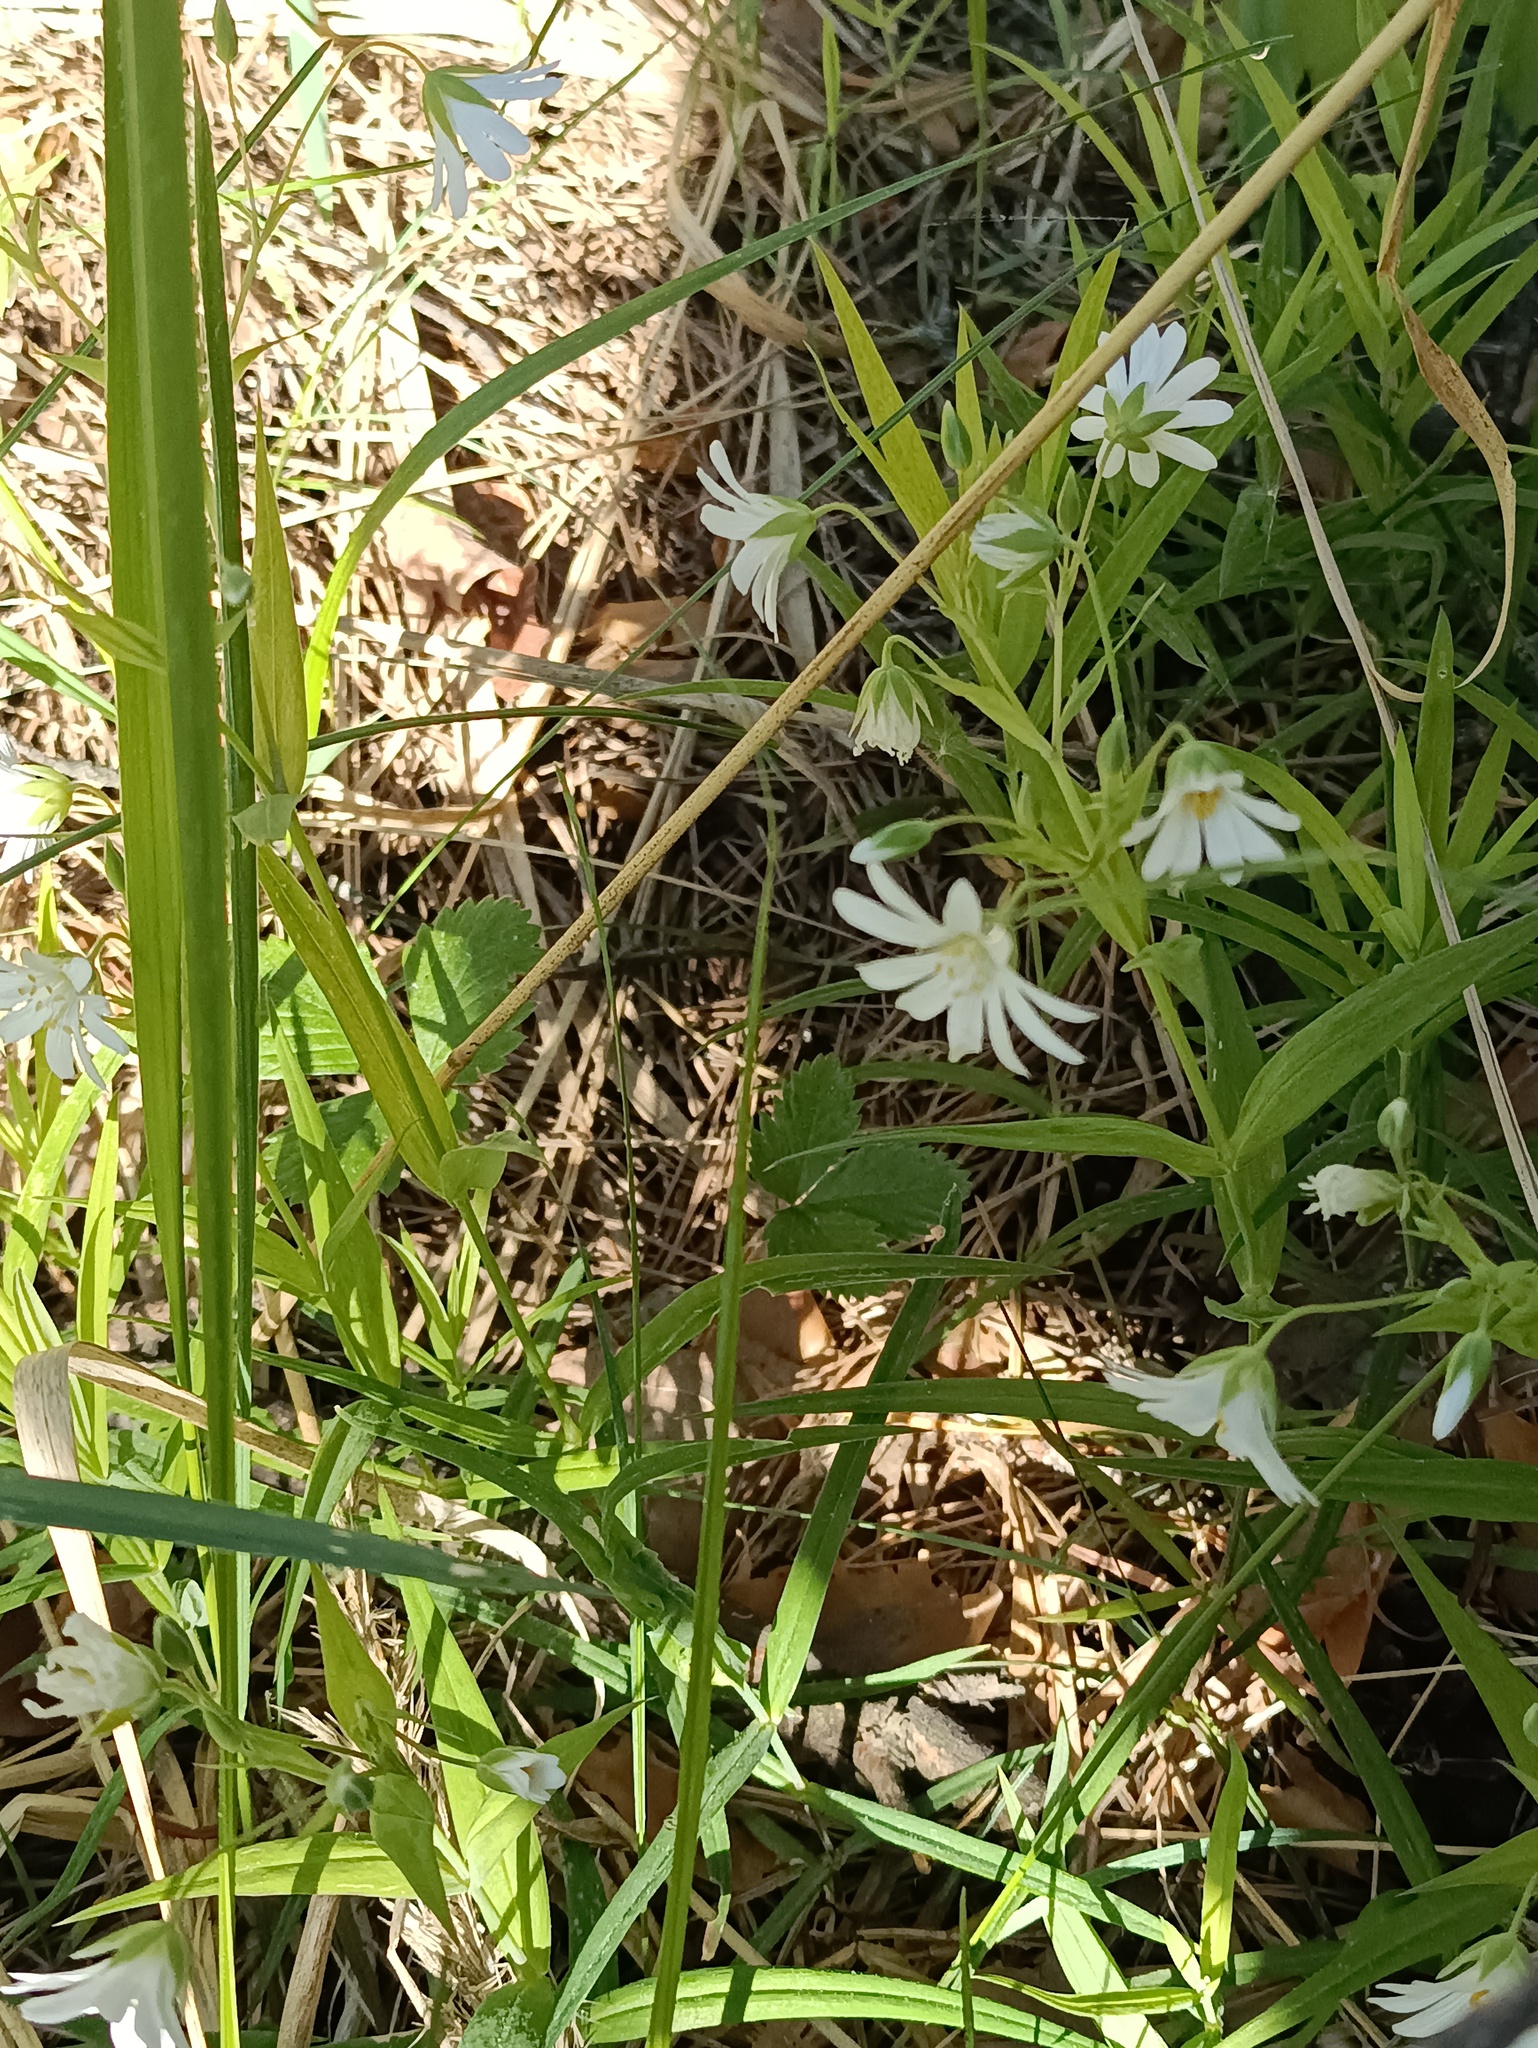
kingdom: Plantae
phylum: Tracheophyta
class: Magnoliopsida
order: Caryophyllales
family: Caryophyllaceae
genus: Rabelera
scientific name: Rabelera holostea
